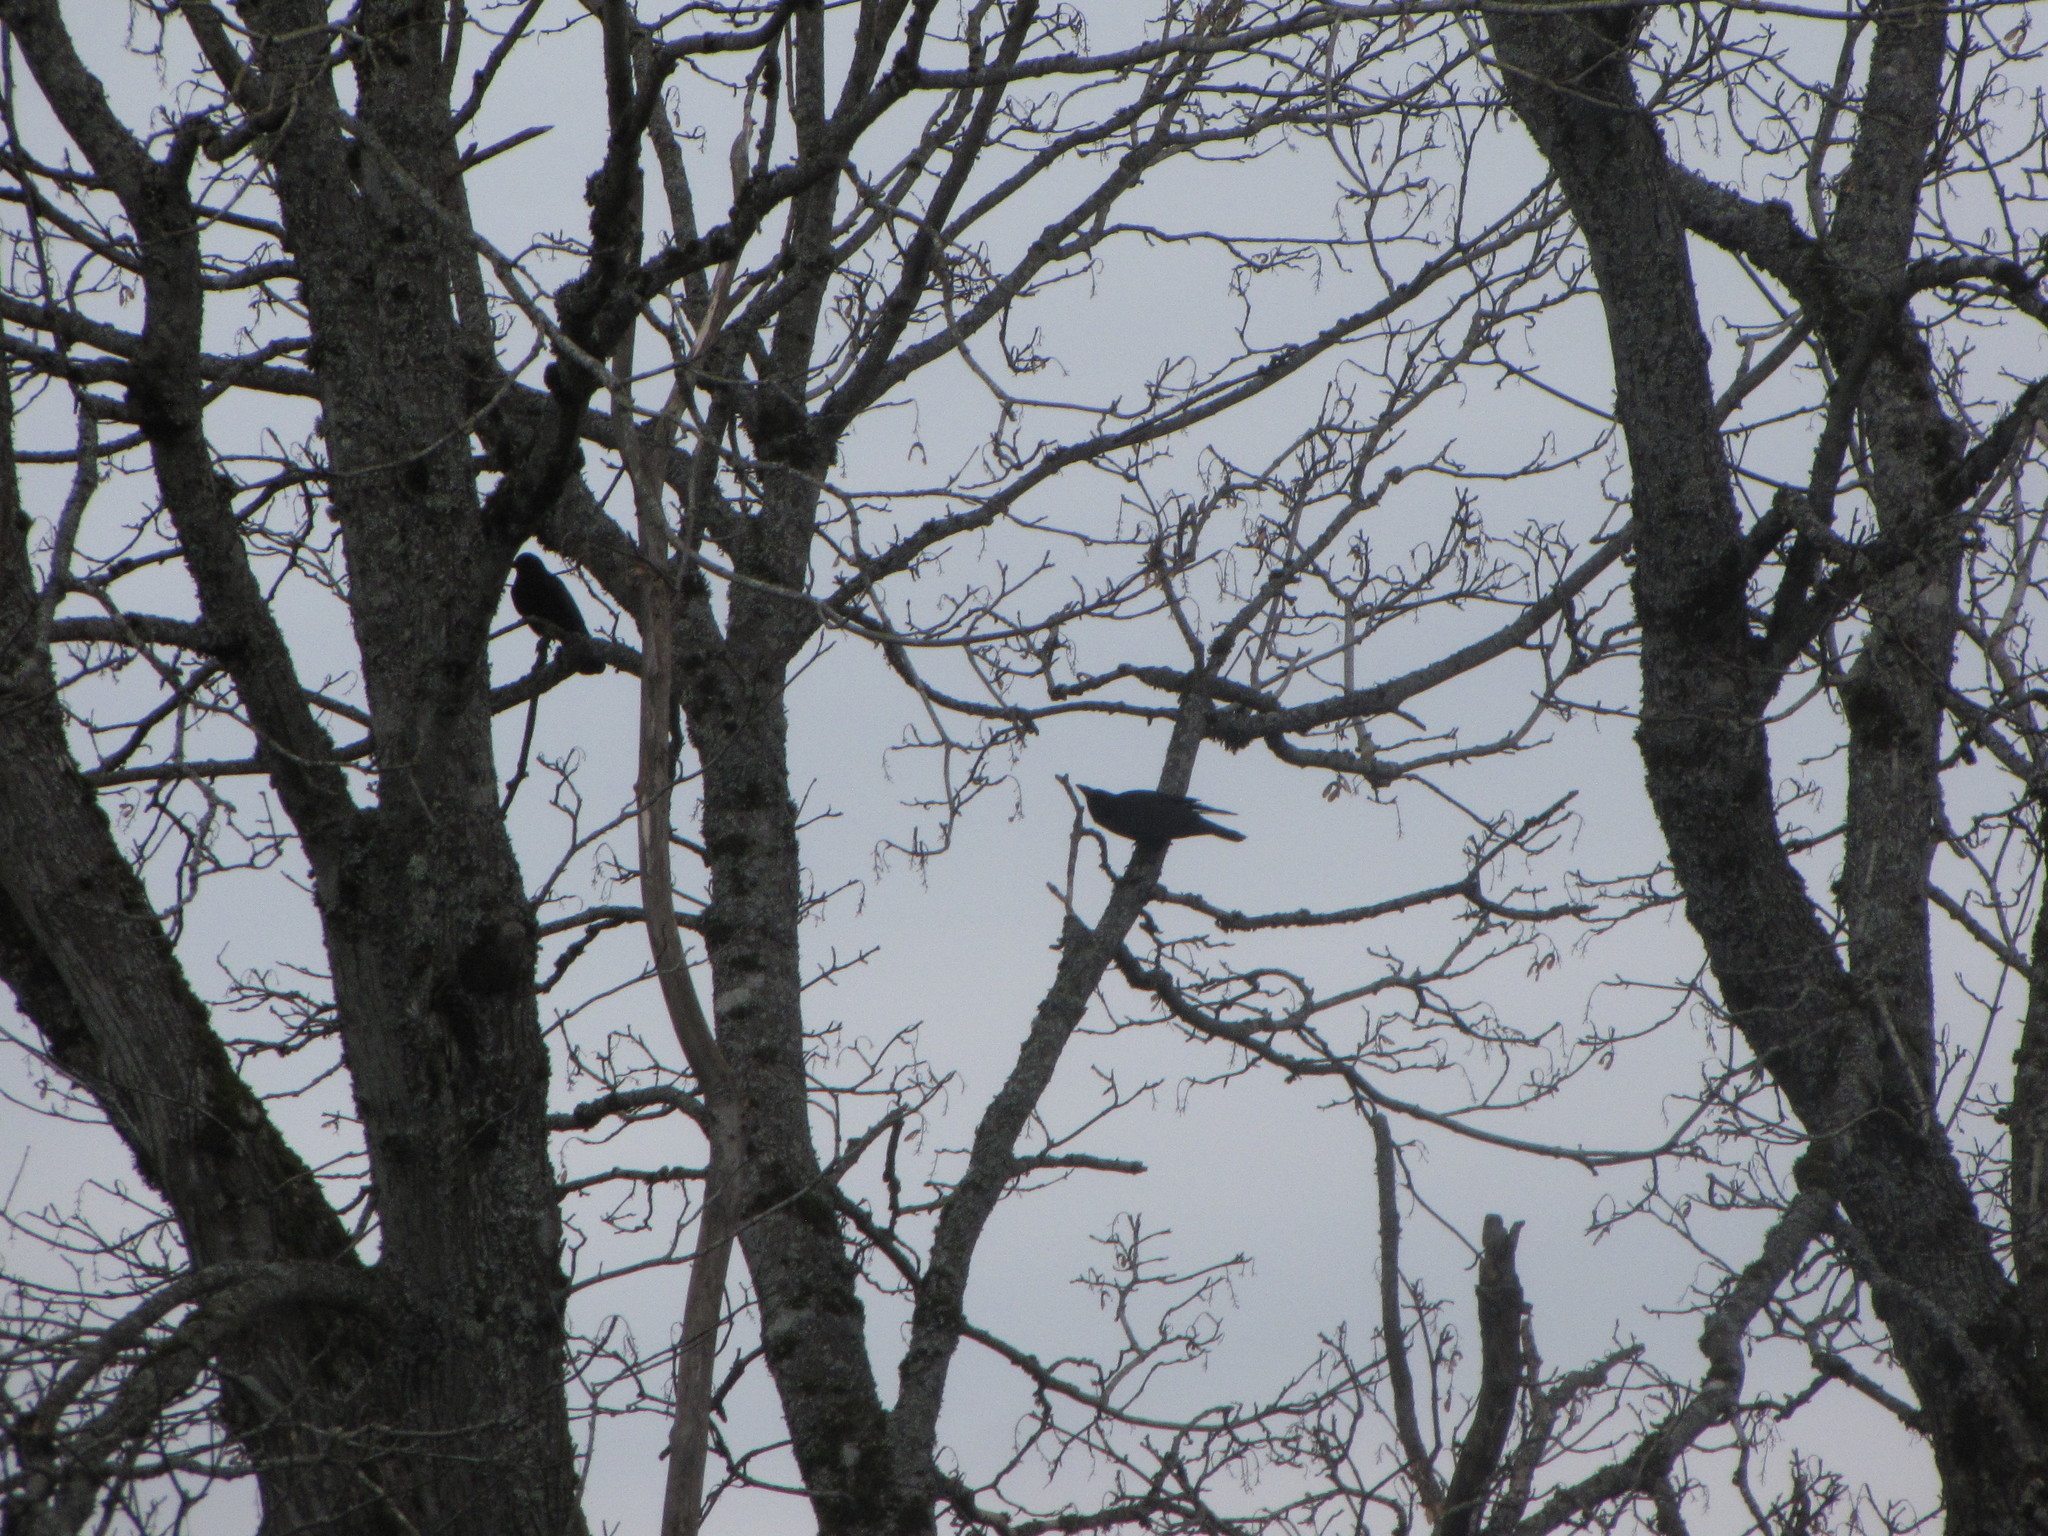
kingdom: Animalia
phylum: Chordata
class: Aves
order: Passeriformes
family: Corvidae
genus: Corvus
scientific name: Corvus brachyrhynchos
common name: American crow
